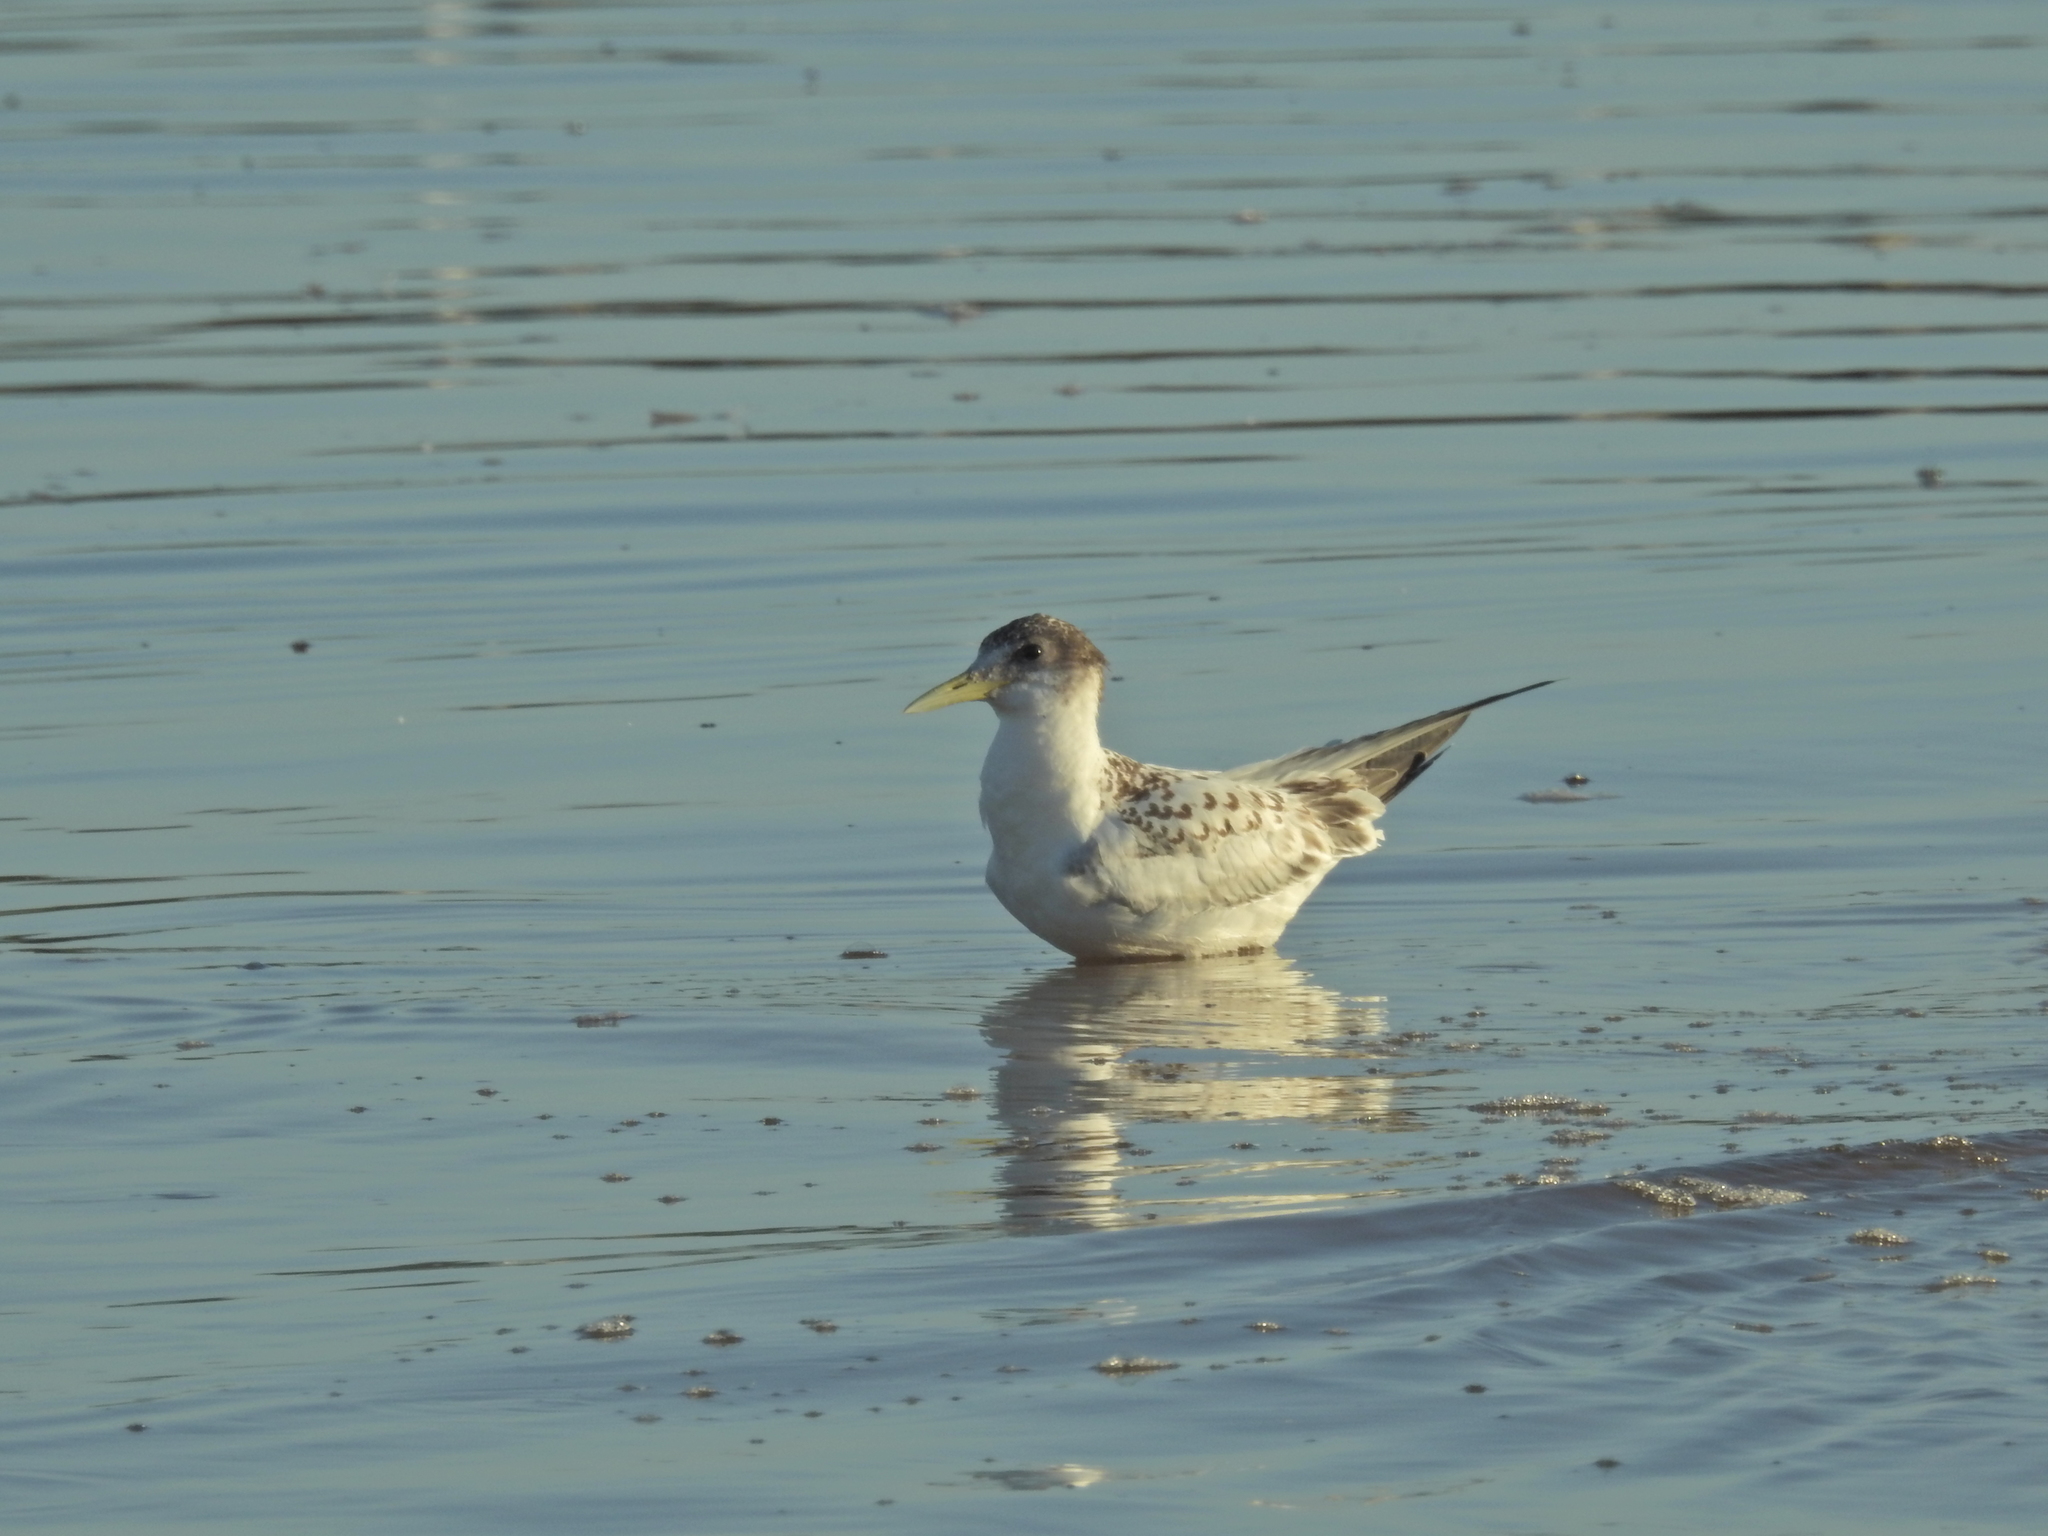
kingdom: Animalia
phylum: Chordata
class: Aves
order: Charadriiformes
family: Laridae
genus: Thalasseus
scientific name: Thalasseus bergii
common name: Greater crested tern
